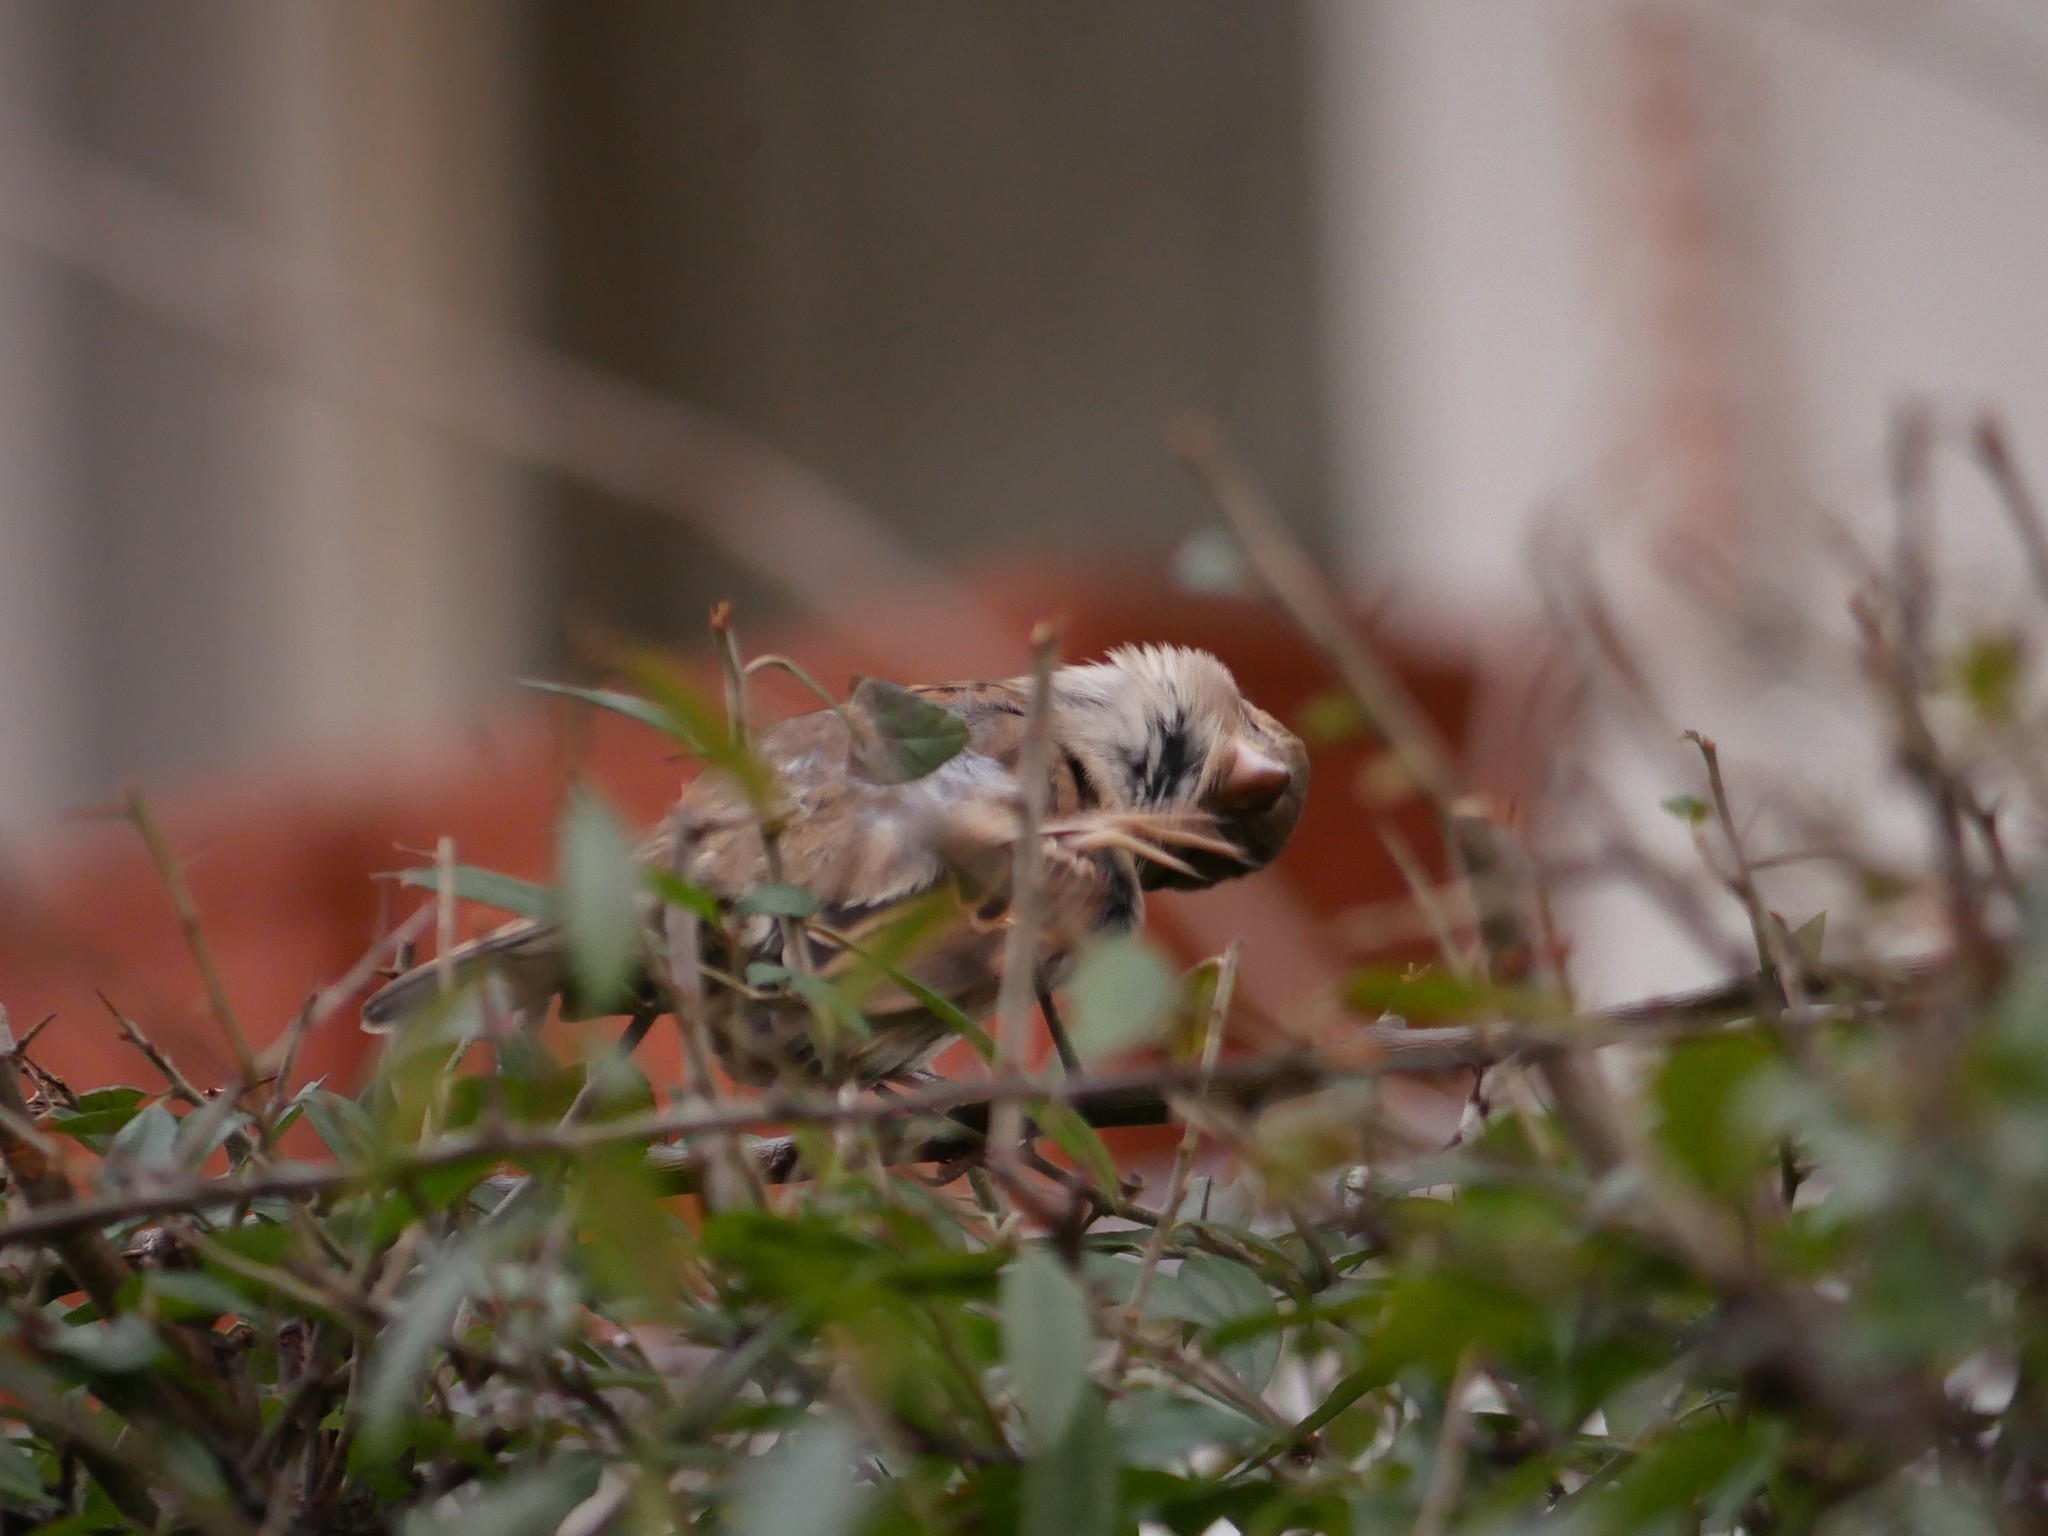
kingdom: Animalia
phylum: Chordata
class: Aves
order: Passeriformes
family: Passeridae
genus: Passer
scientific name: Passer domesticus
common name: House sparrow
